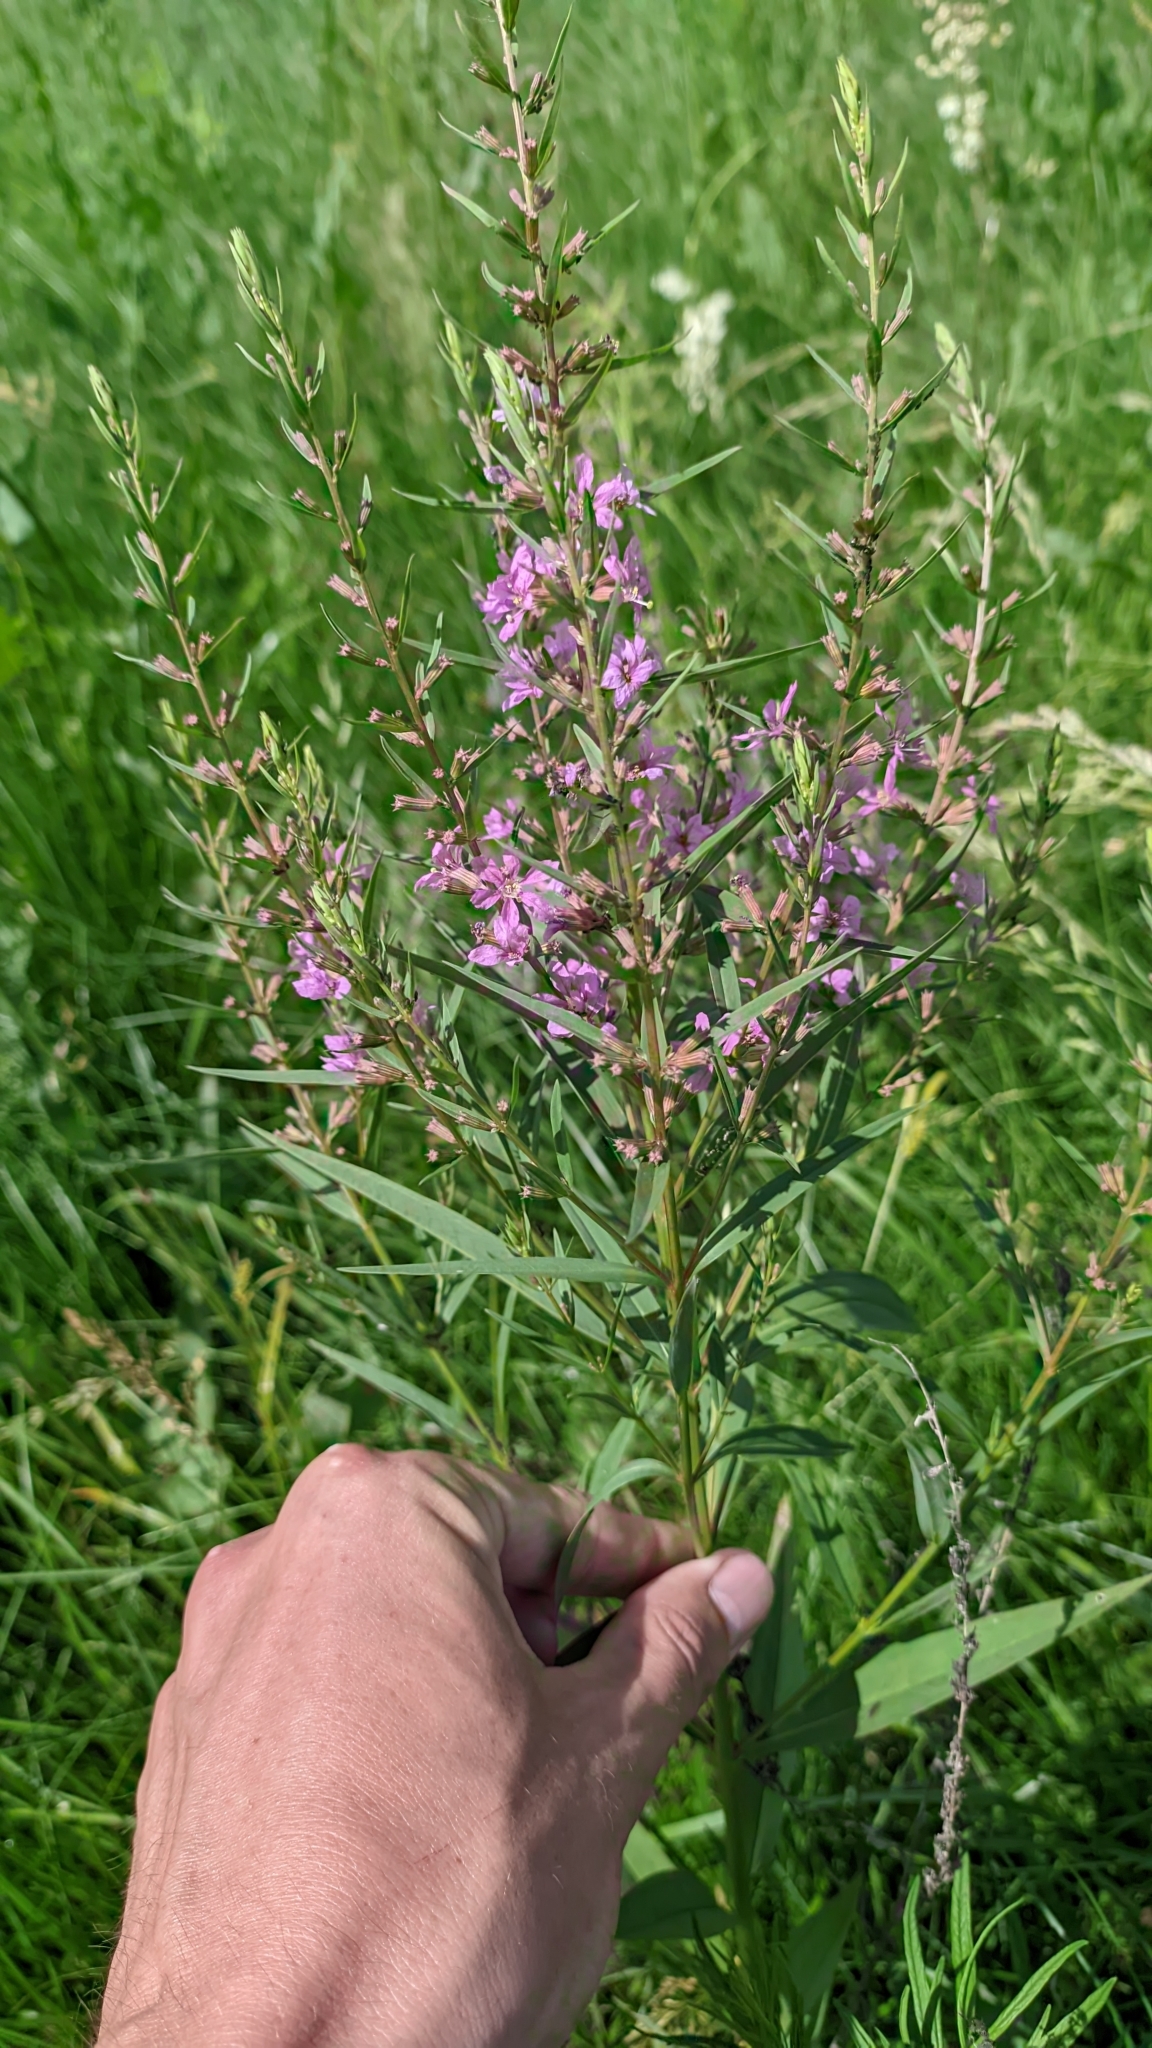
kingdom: Plantae
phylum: Tracheophyta
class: Magnoliopsida
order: Myrtales
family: Lythraceae
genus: Lythrum
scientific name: Lythrum virgatum
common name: European wand loosestrife
